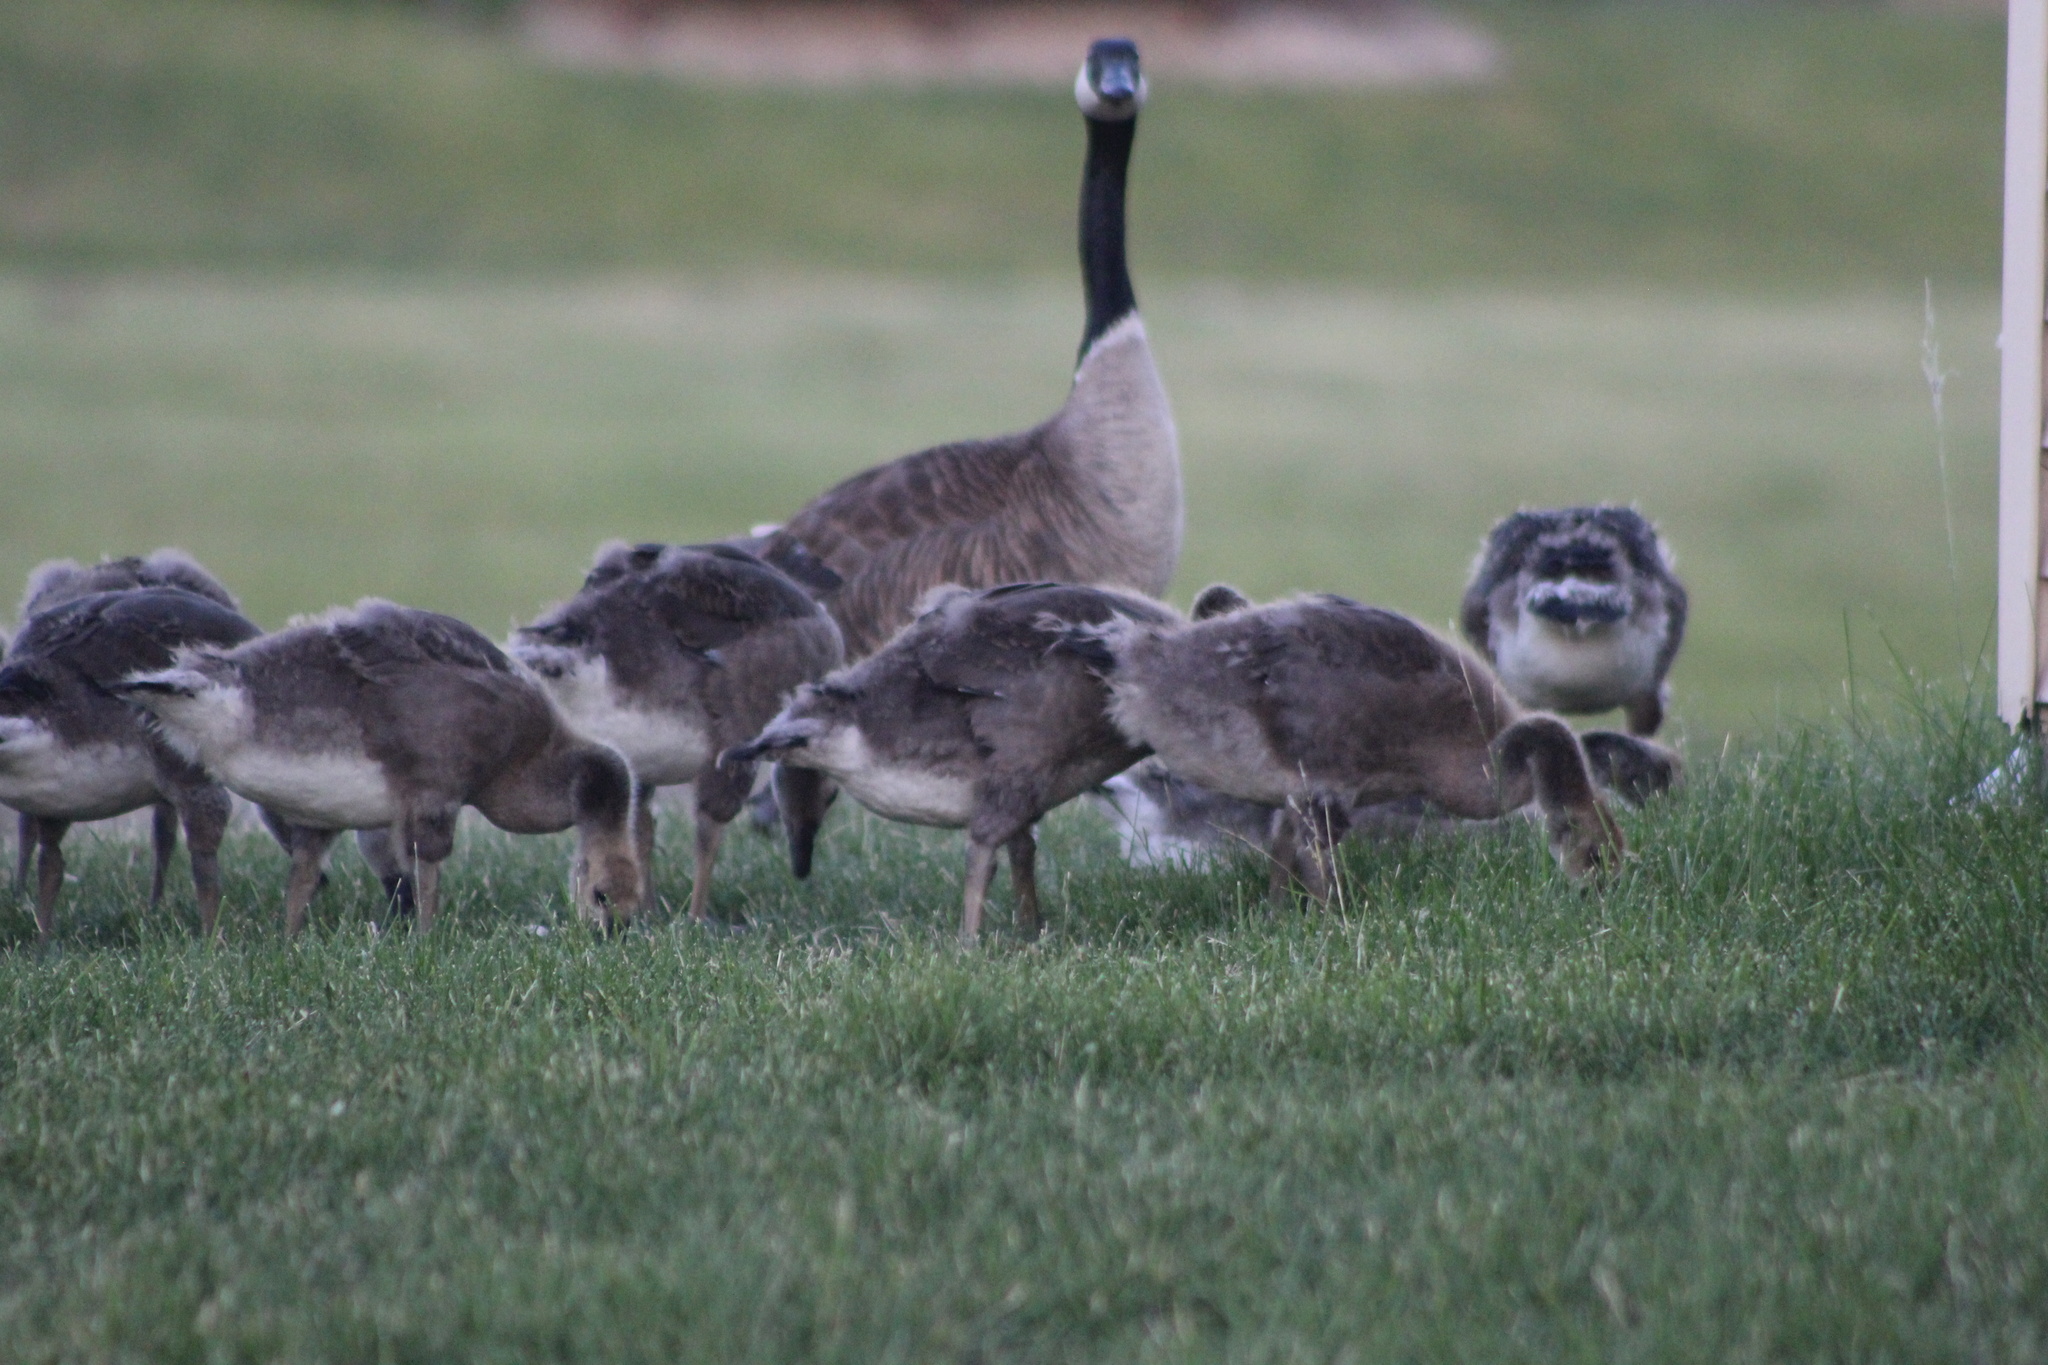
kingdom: Animalia
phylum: Chordata
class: Aves
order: Anseriformes
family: Anatidae
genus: Branta
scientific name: Branta canadensis
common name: Canada goose
